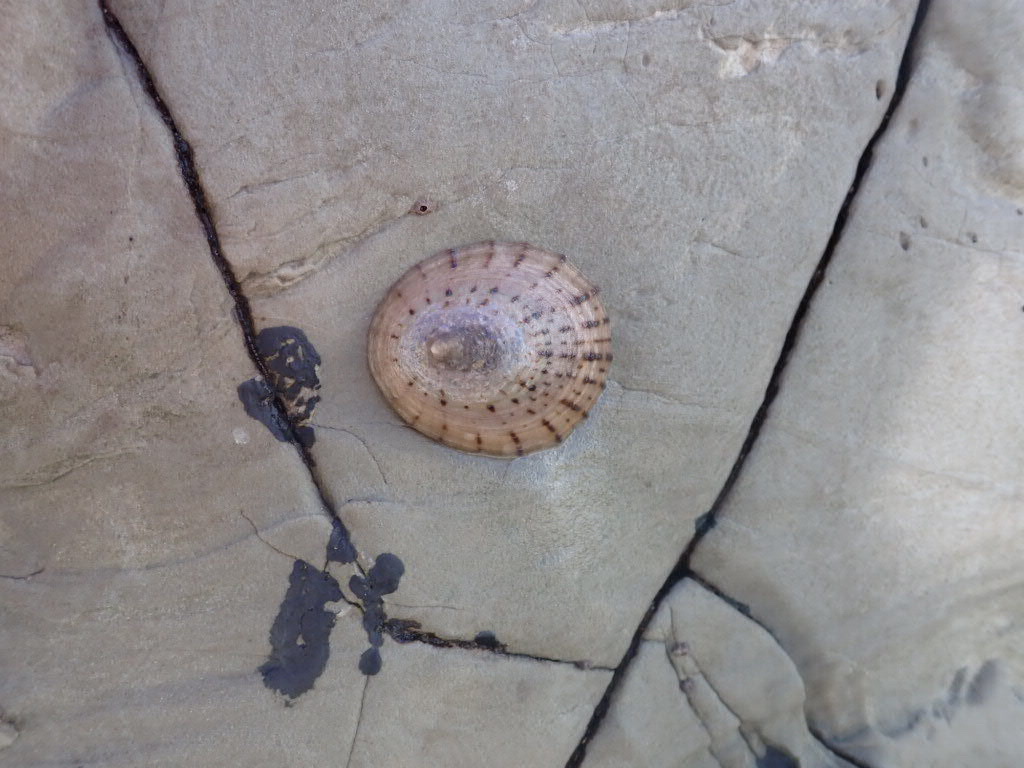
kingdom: Animalia
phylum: Mollusca
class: Gastropoda
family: Nacellidae
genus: Cellana
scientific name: Cellana radians
